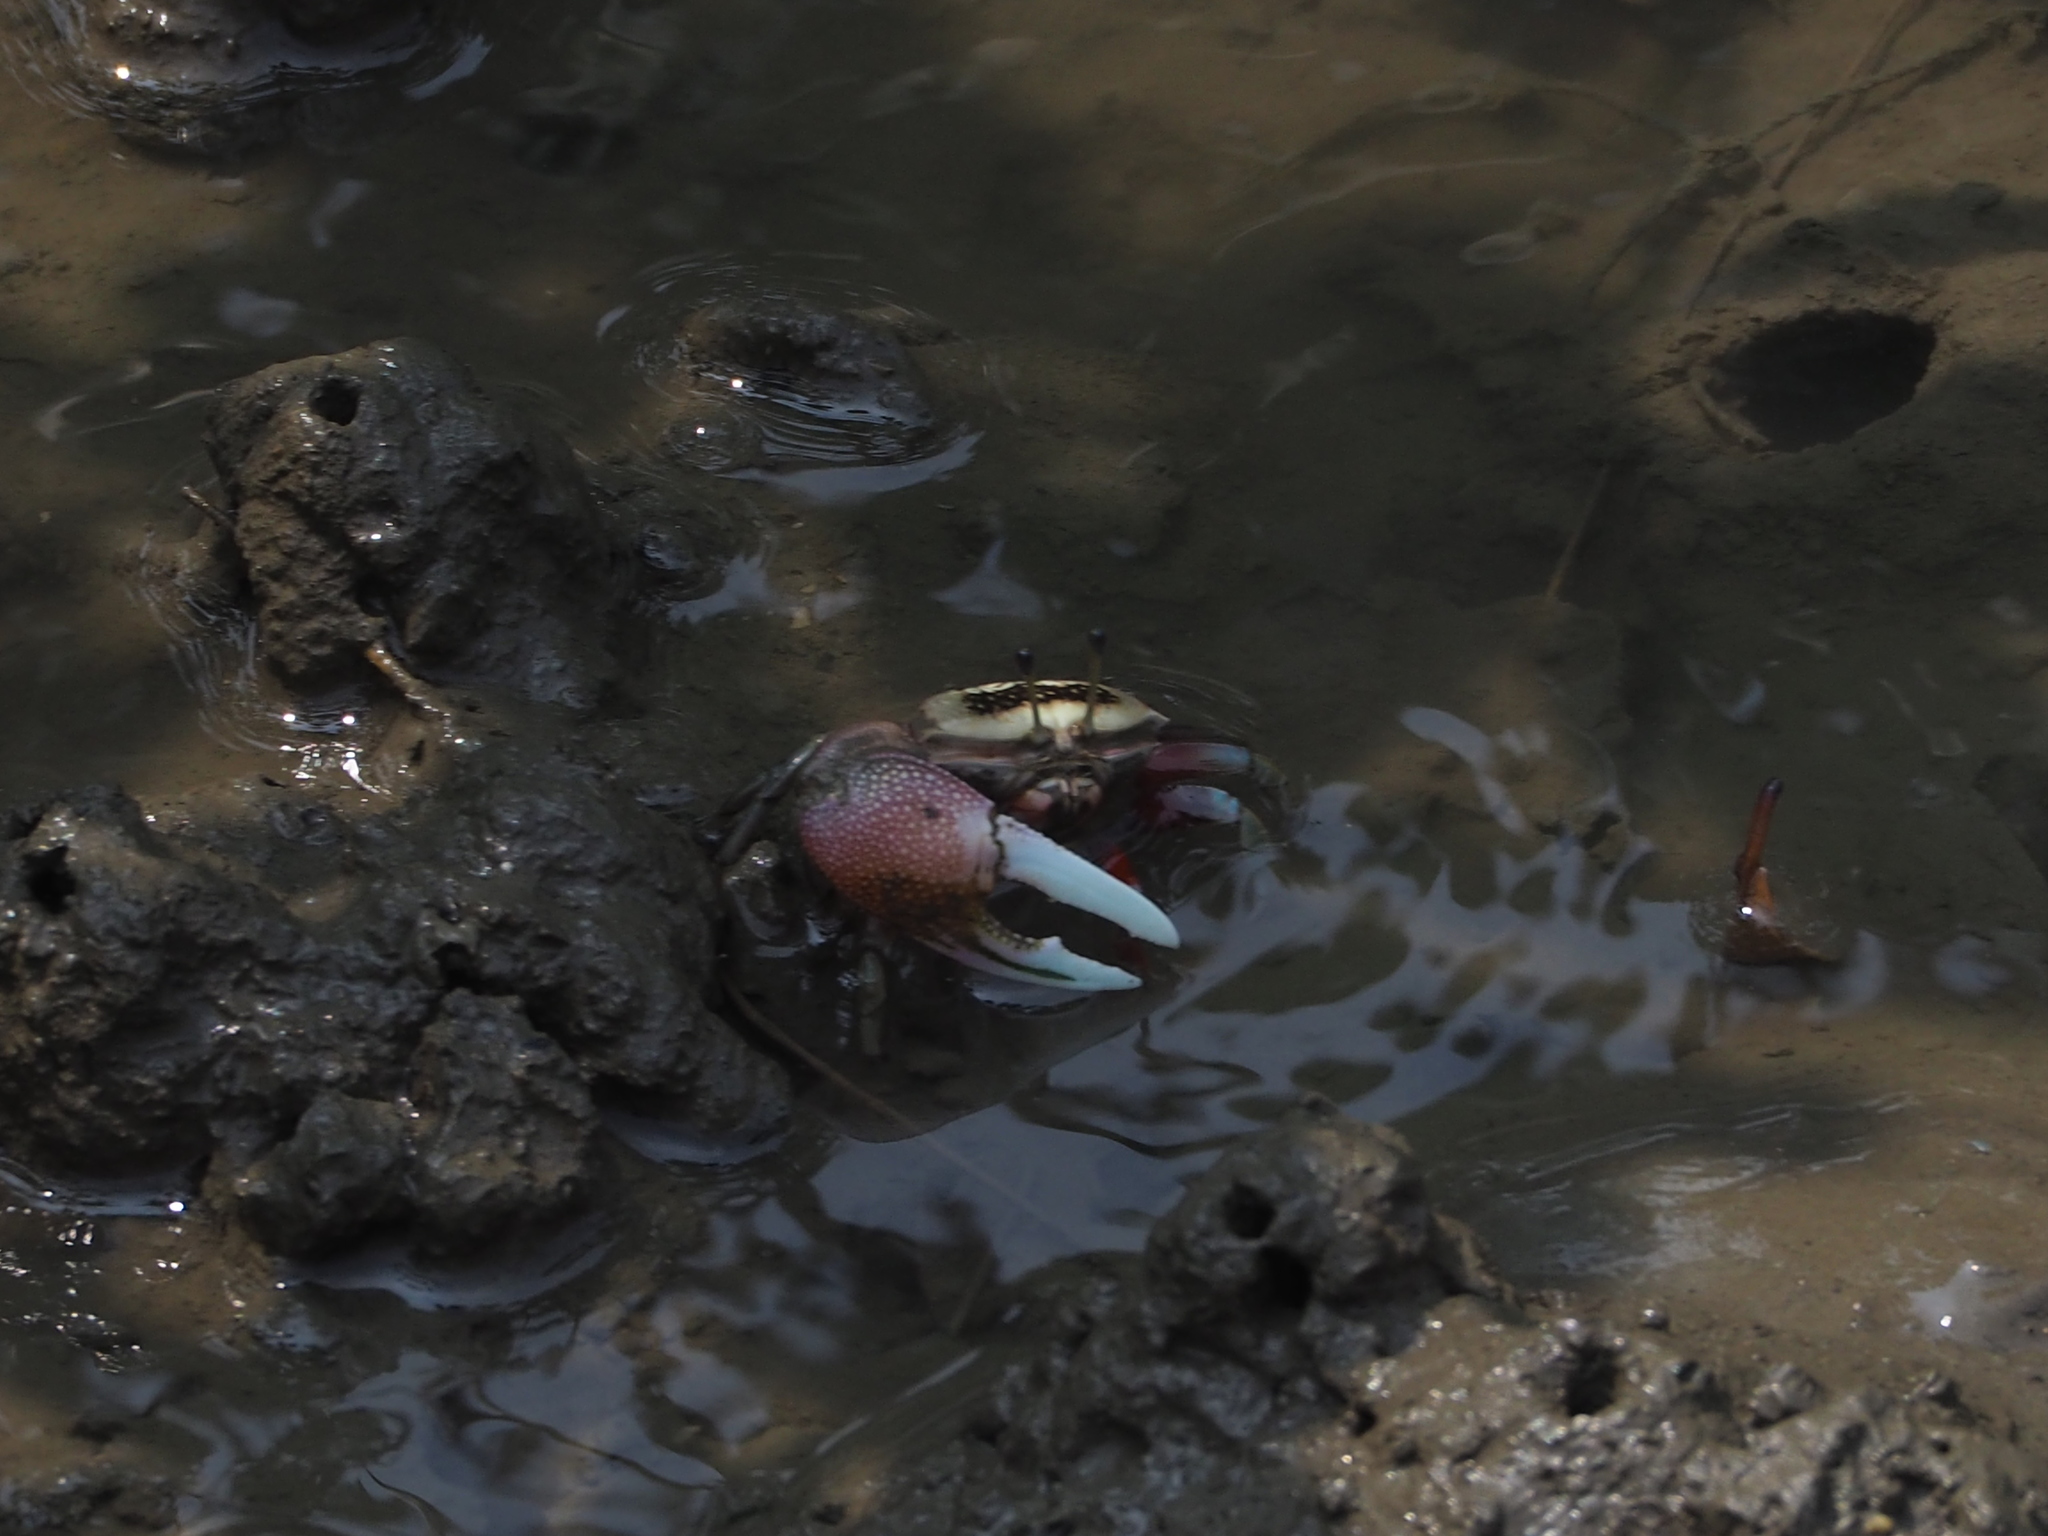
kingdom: Animalia
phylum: Arthropoda
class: Malacostraca
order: Decapoda
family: Ocypodidae
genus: Tubuca
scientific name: Tubuca arcuata
